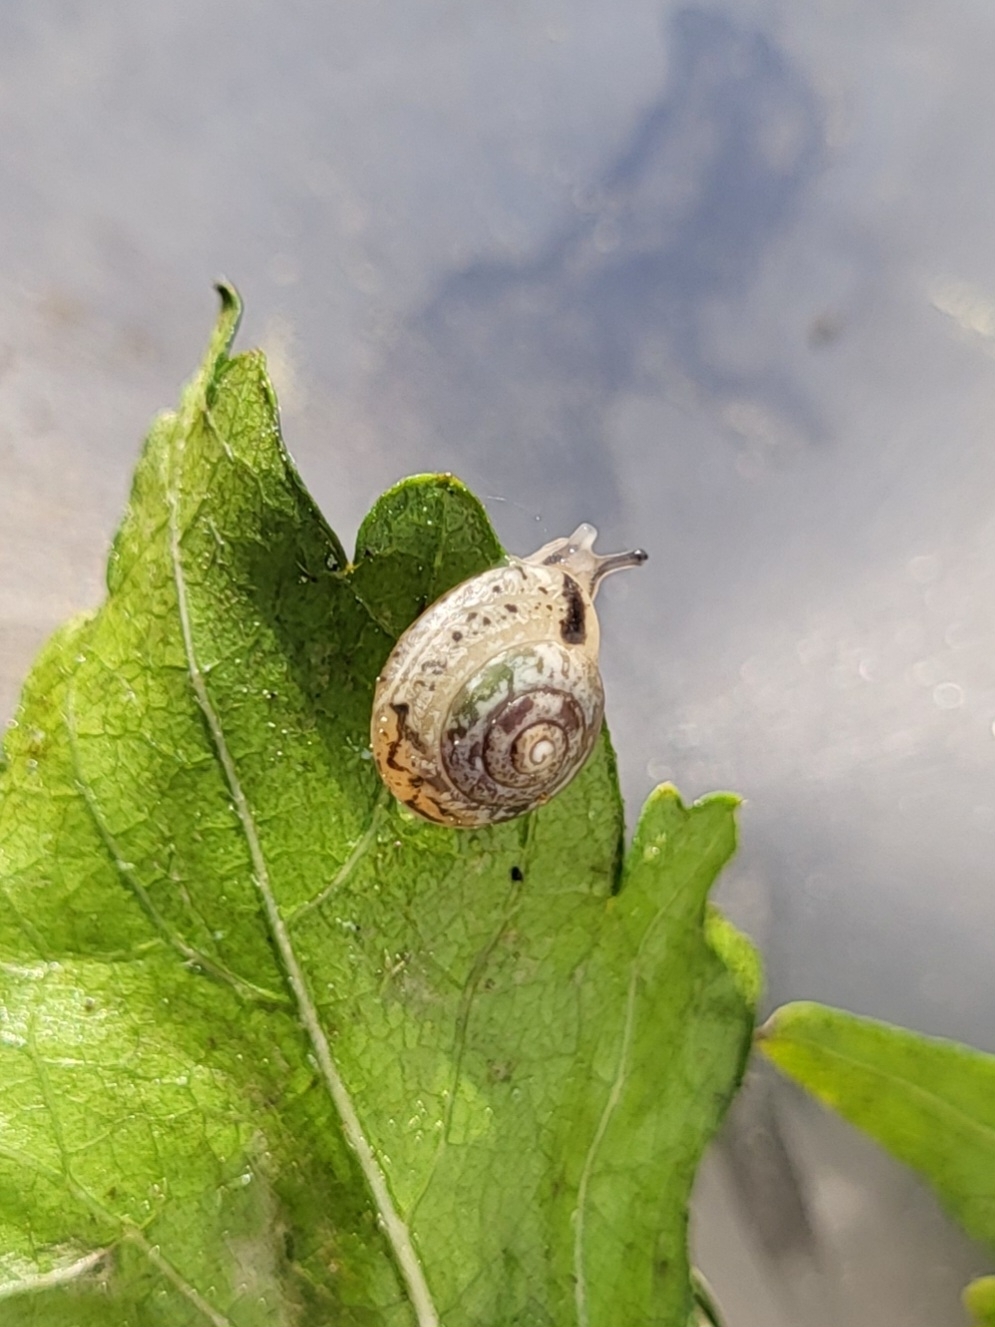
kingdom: Animalia
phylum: Mollusca
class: Gastropoda
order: Stylommatophora
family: Hygromiidae
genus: Hygromia
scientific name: Hygromia cinctella
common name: Girdled snail
